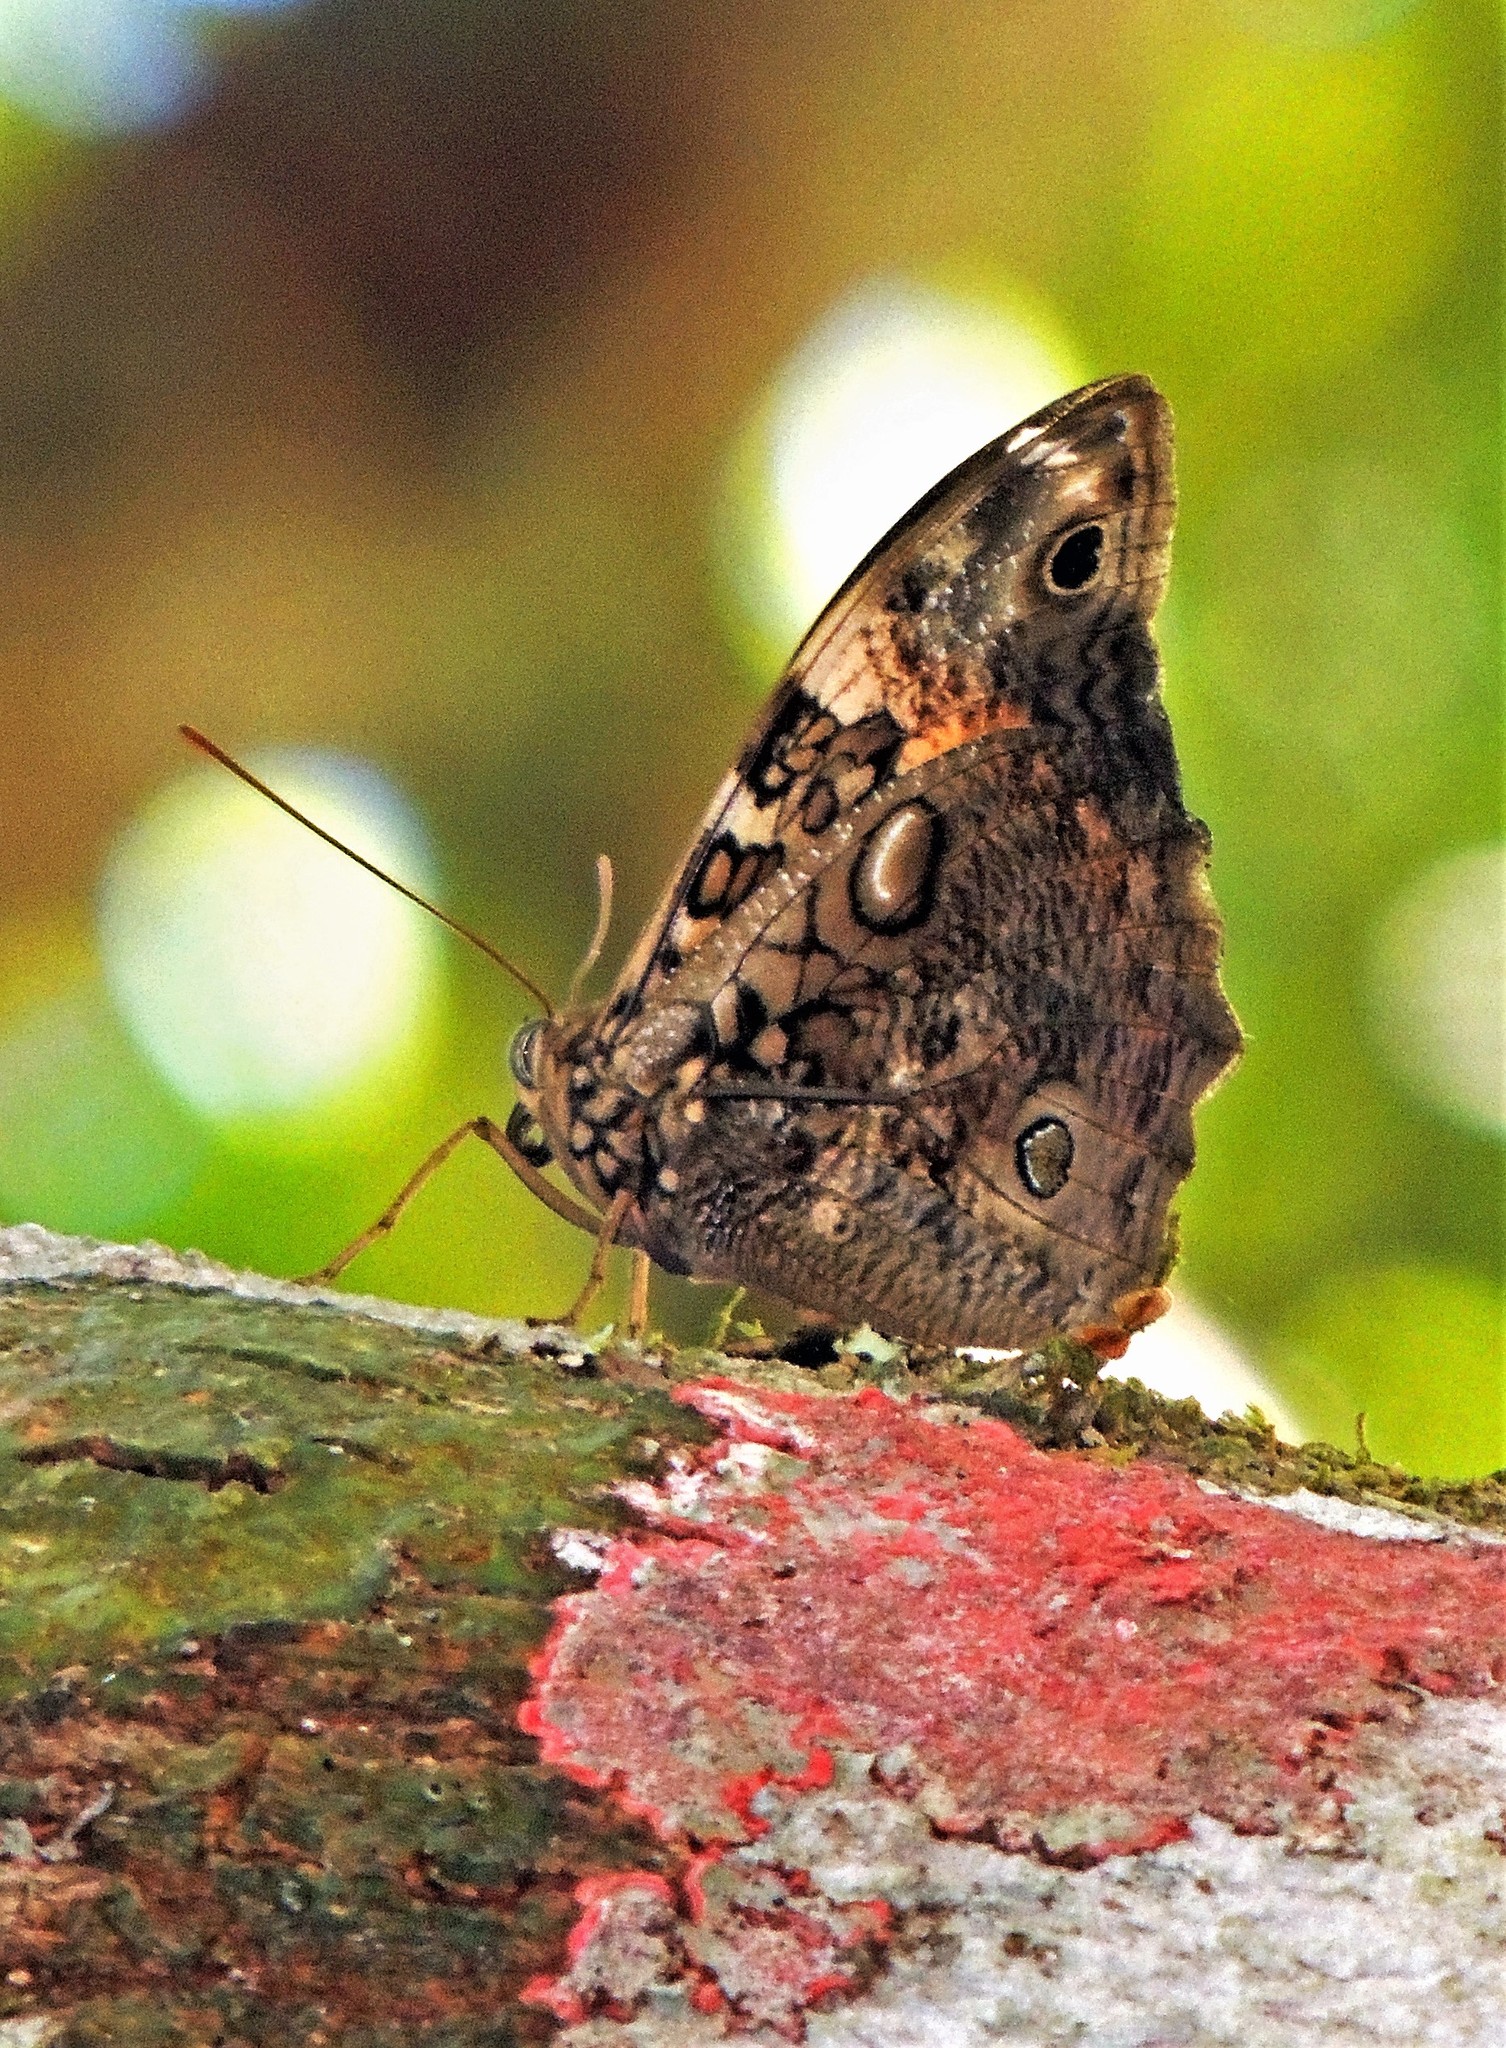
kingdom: Animalia
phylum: Arthropoda
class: Insecta
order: Lepidoptera
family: Nymphalidae
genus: Opsiphanes
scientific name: Opsiphanes quiteria
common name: Scalloped owlet
